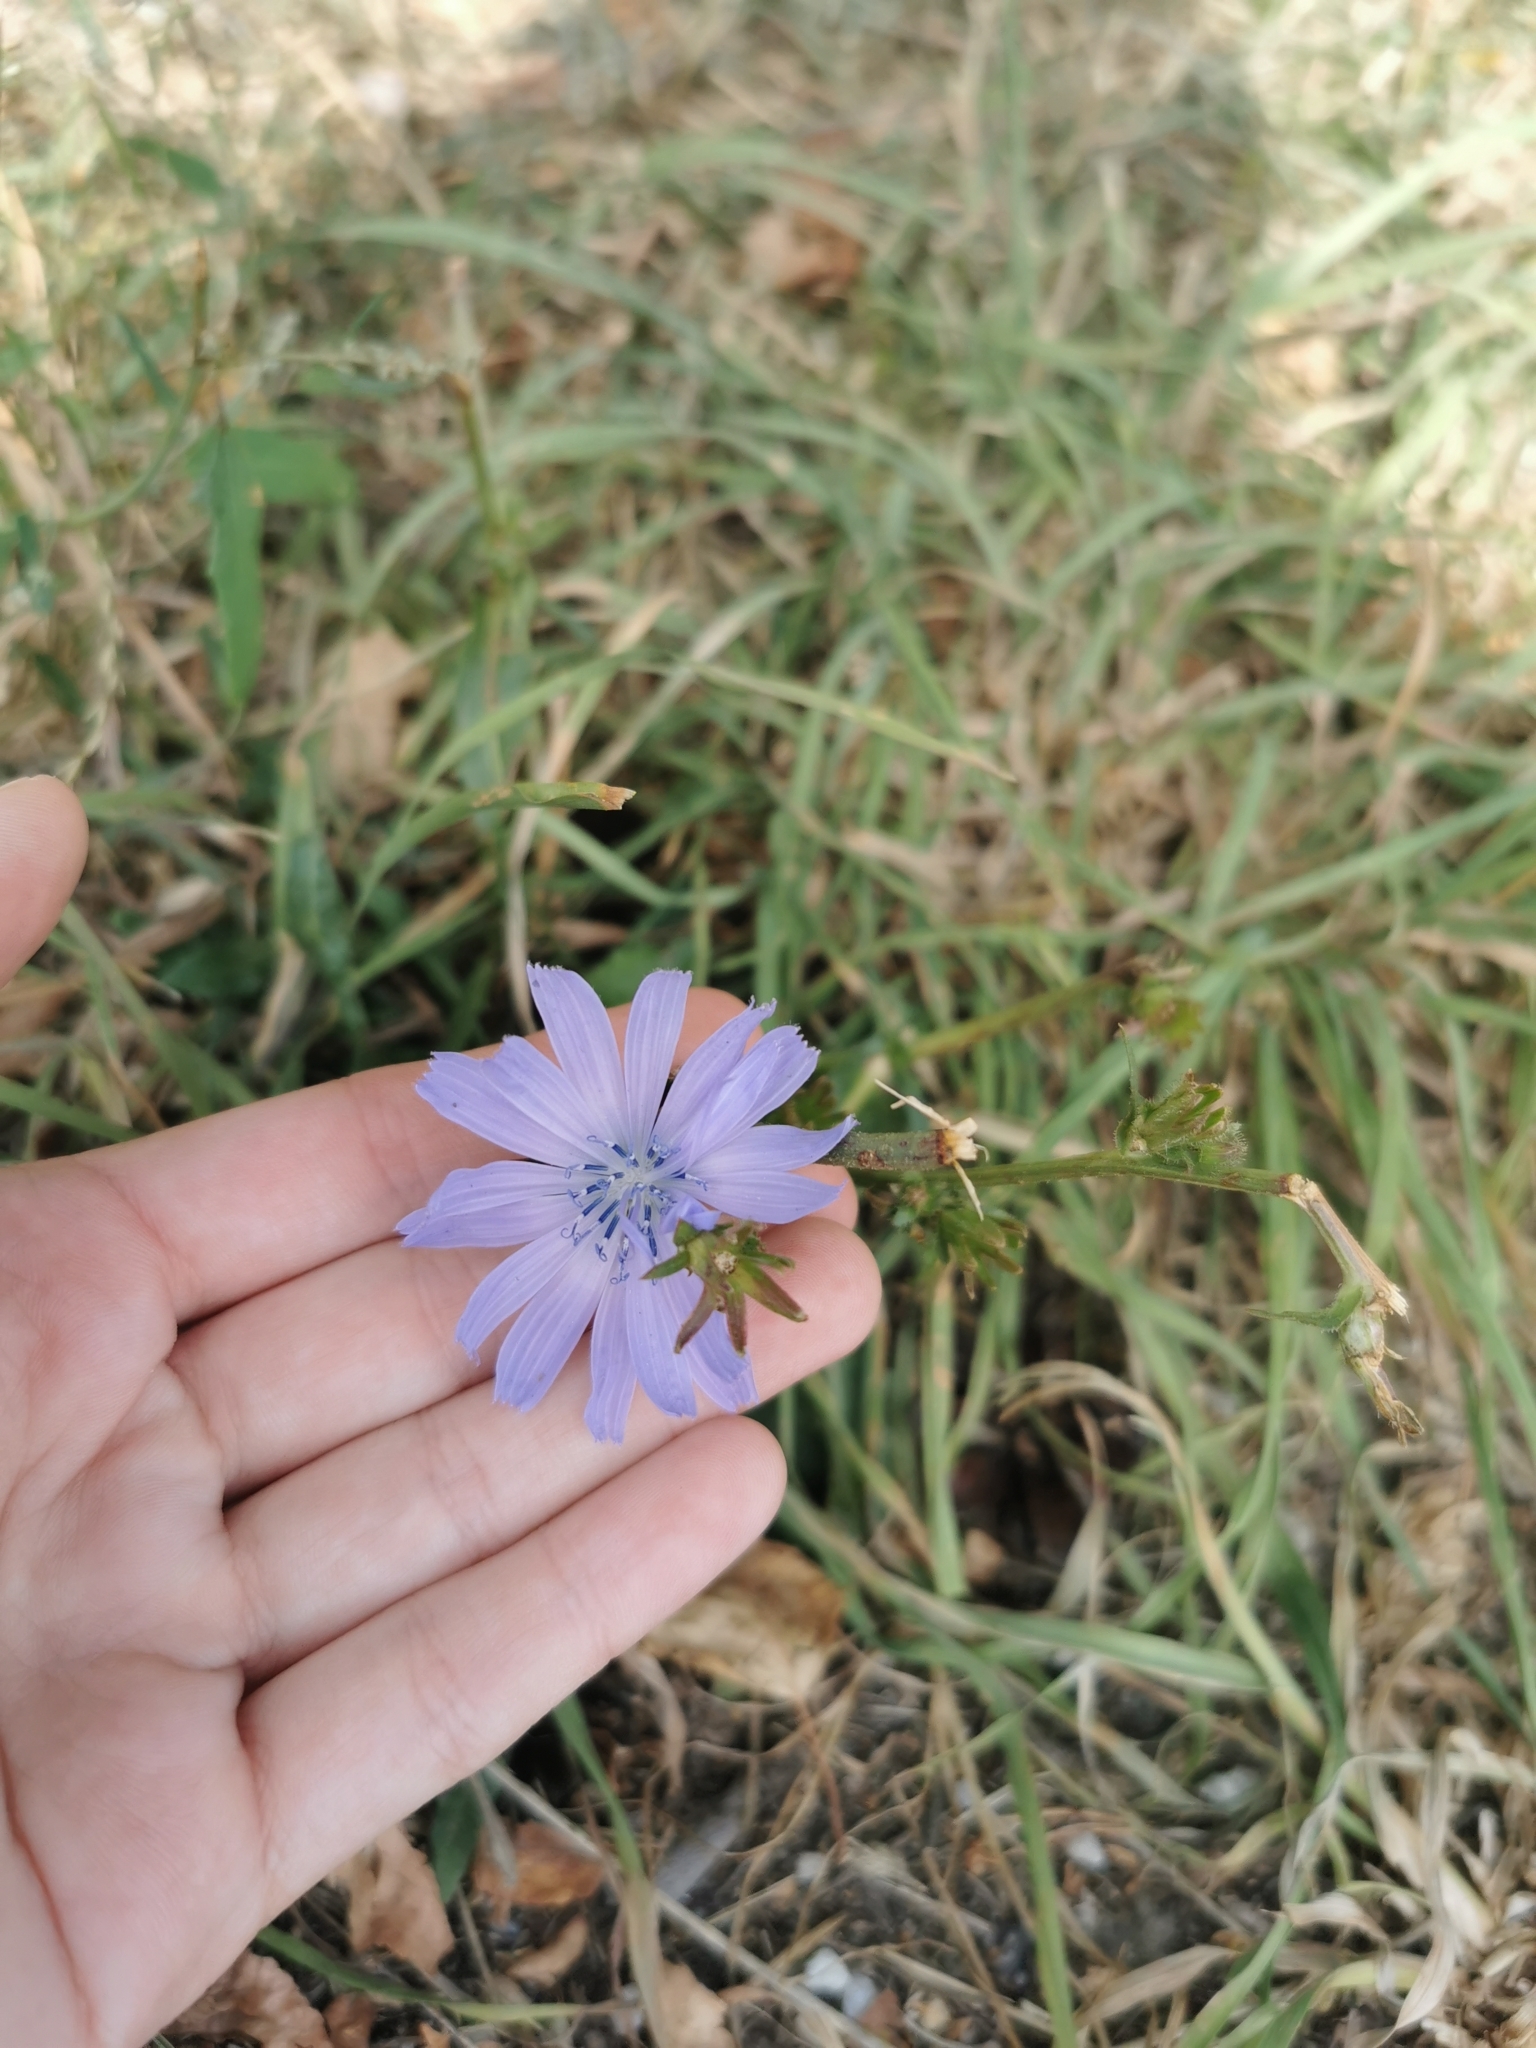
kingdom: Plantae
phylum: Tracheophyta
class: Magnoliopsida
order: Asterales
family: Asteraceae
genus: Cichorium
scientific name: Cichorium intybus
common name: Chicory
